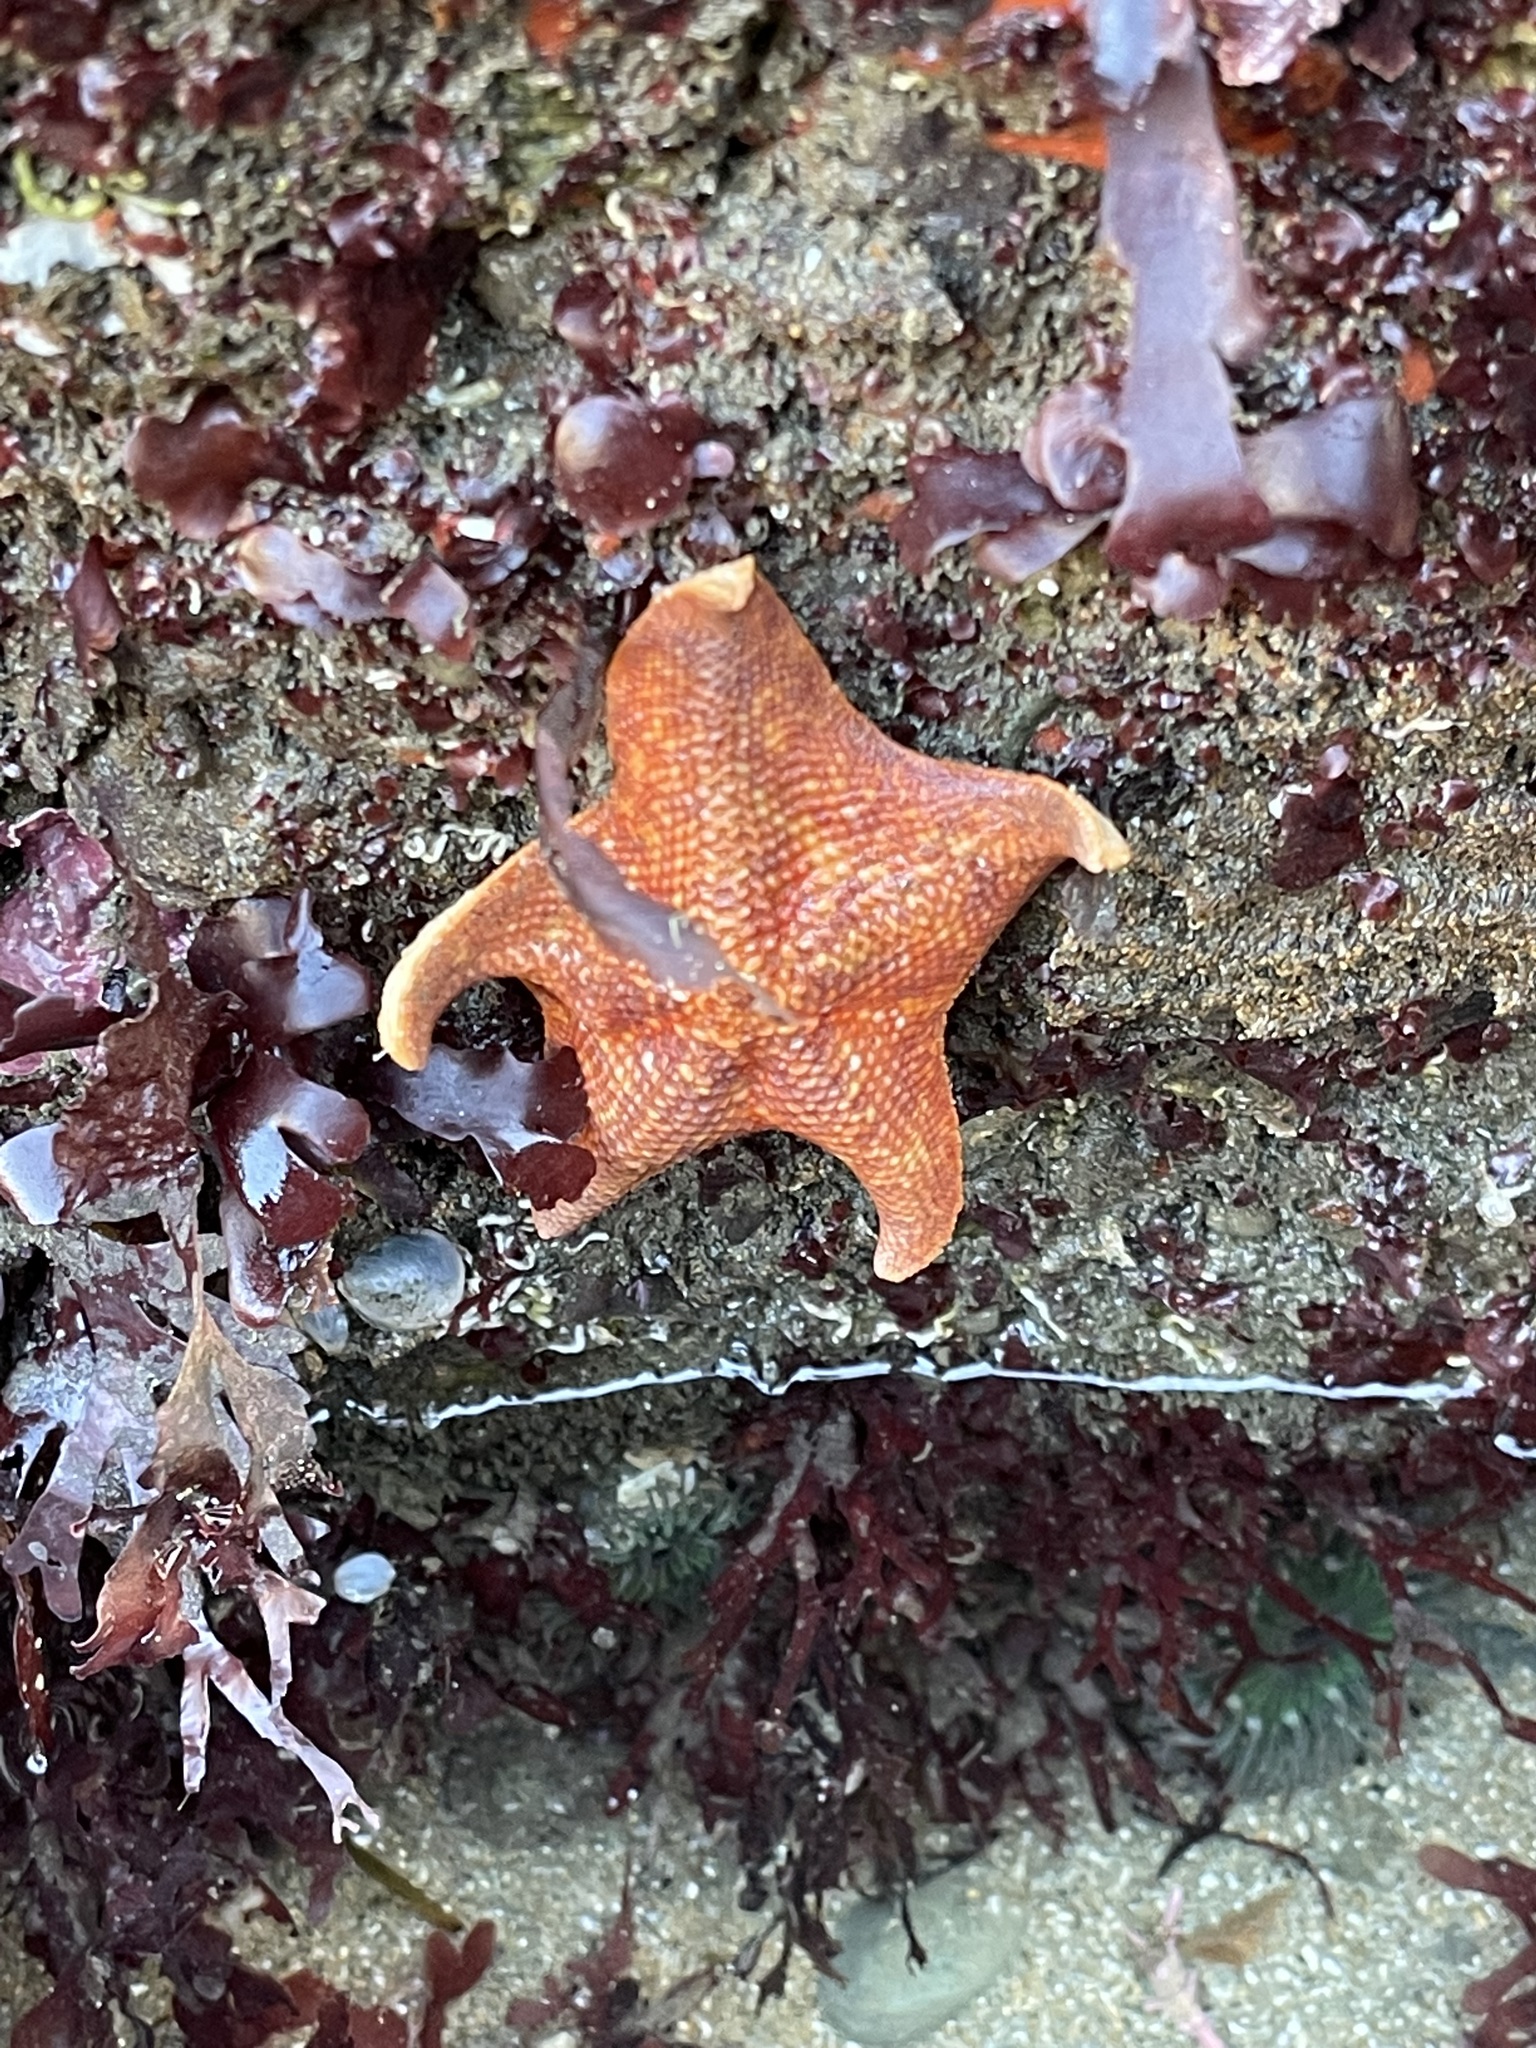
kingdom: Animalia
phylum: Echinodermata
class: Asteroidea
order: Valvatida
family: Asterinidae
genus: Patiria
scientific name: Patiria miniata
